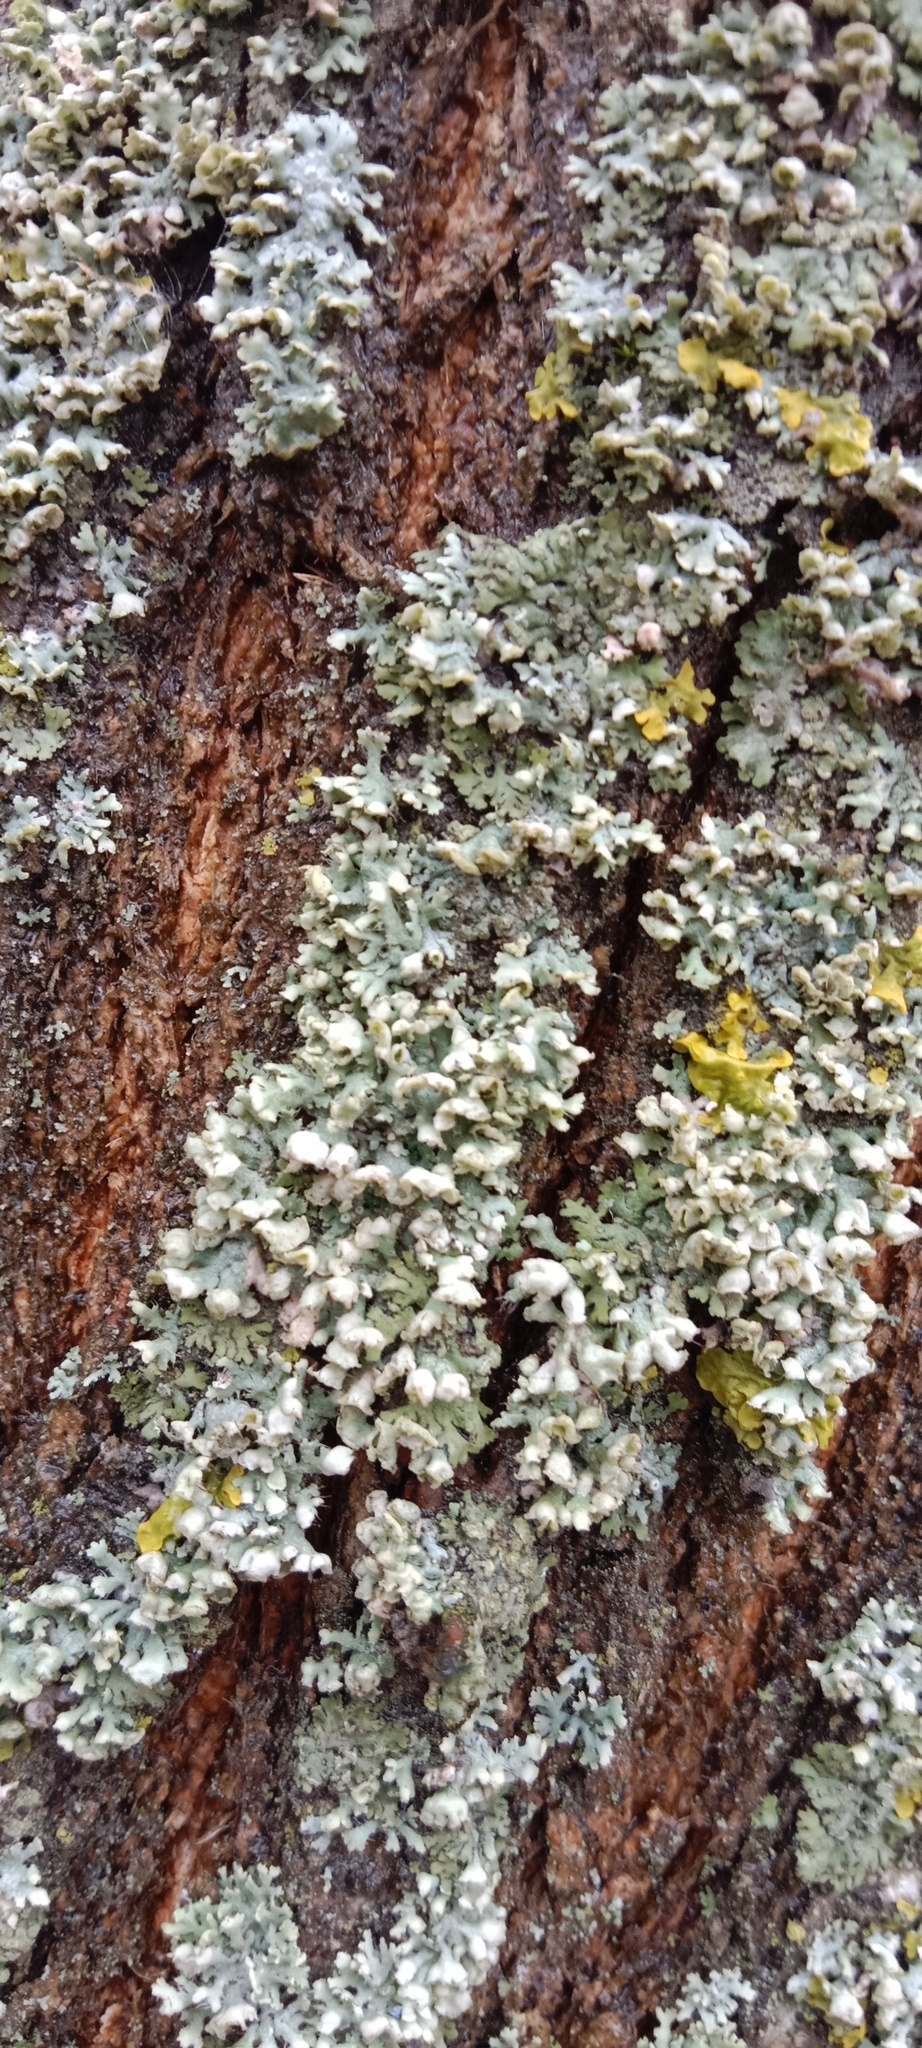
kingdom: Fungi
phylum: Ascomycota
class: Lecanoromycetes
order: Caliciales
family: Physciaceae
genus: Physcia
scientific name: Physcia adscendens
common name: Hooded rosette lichen
